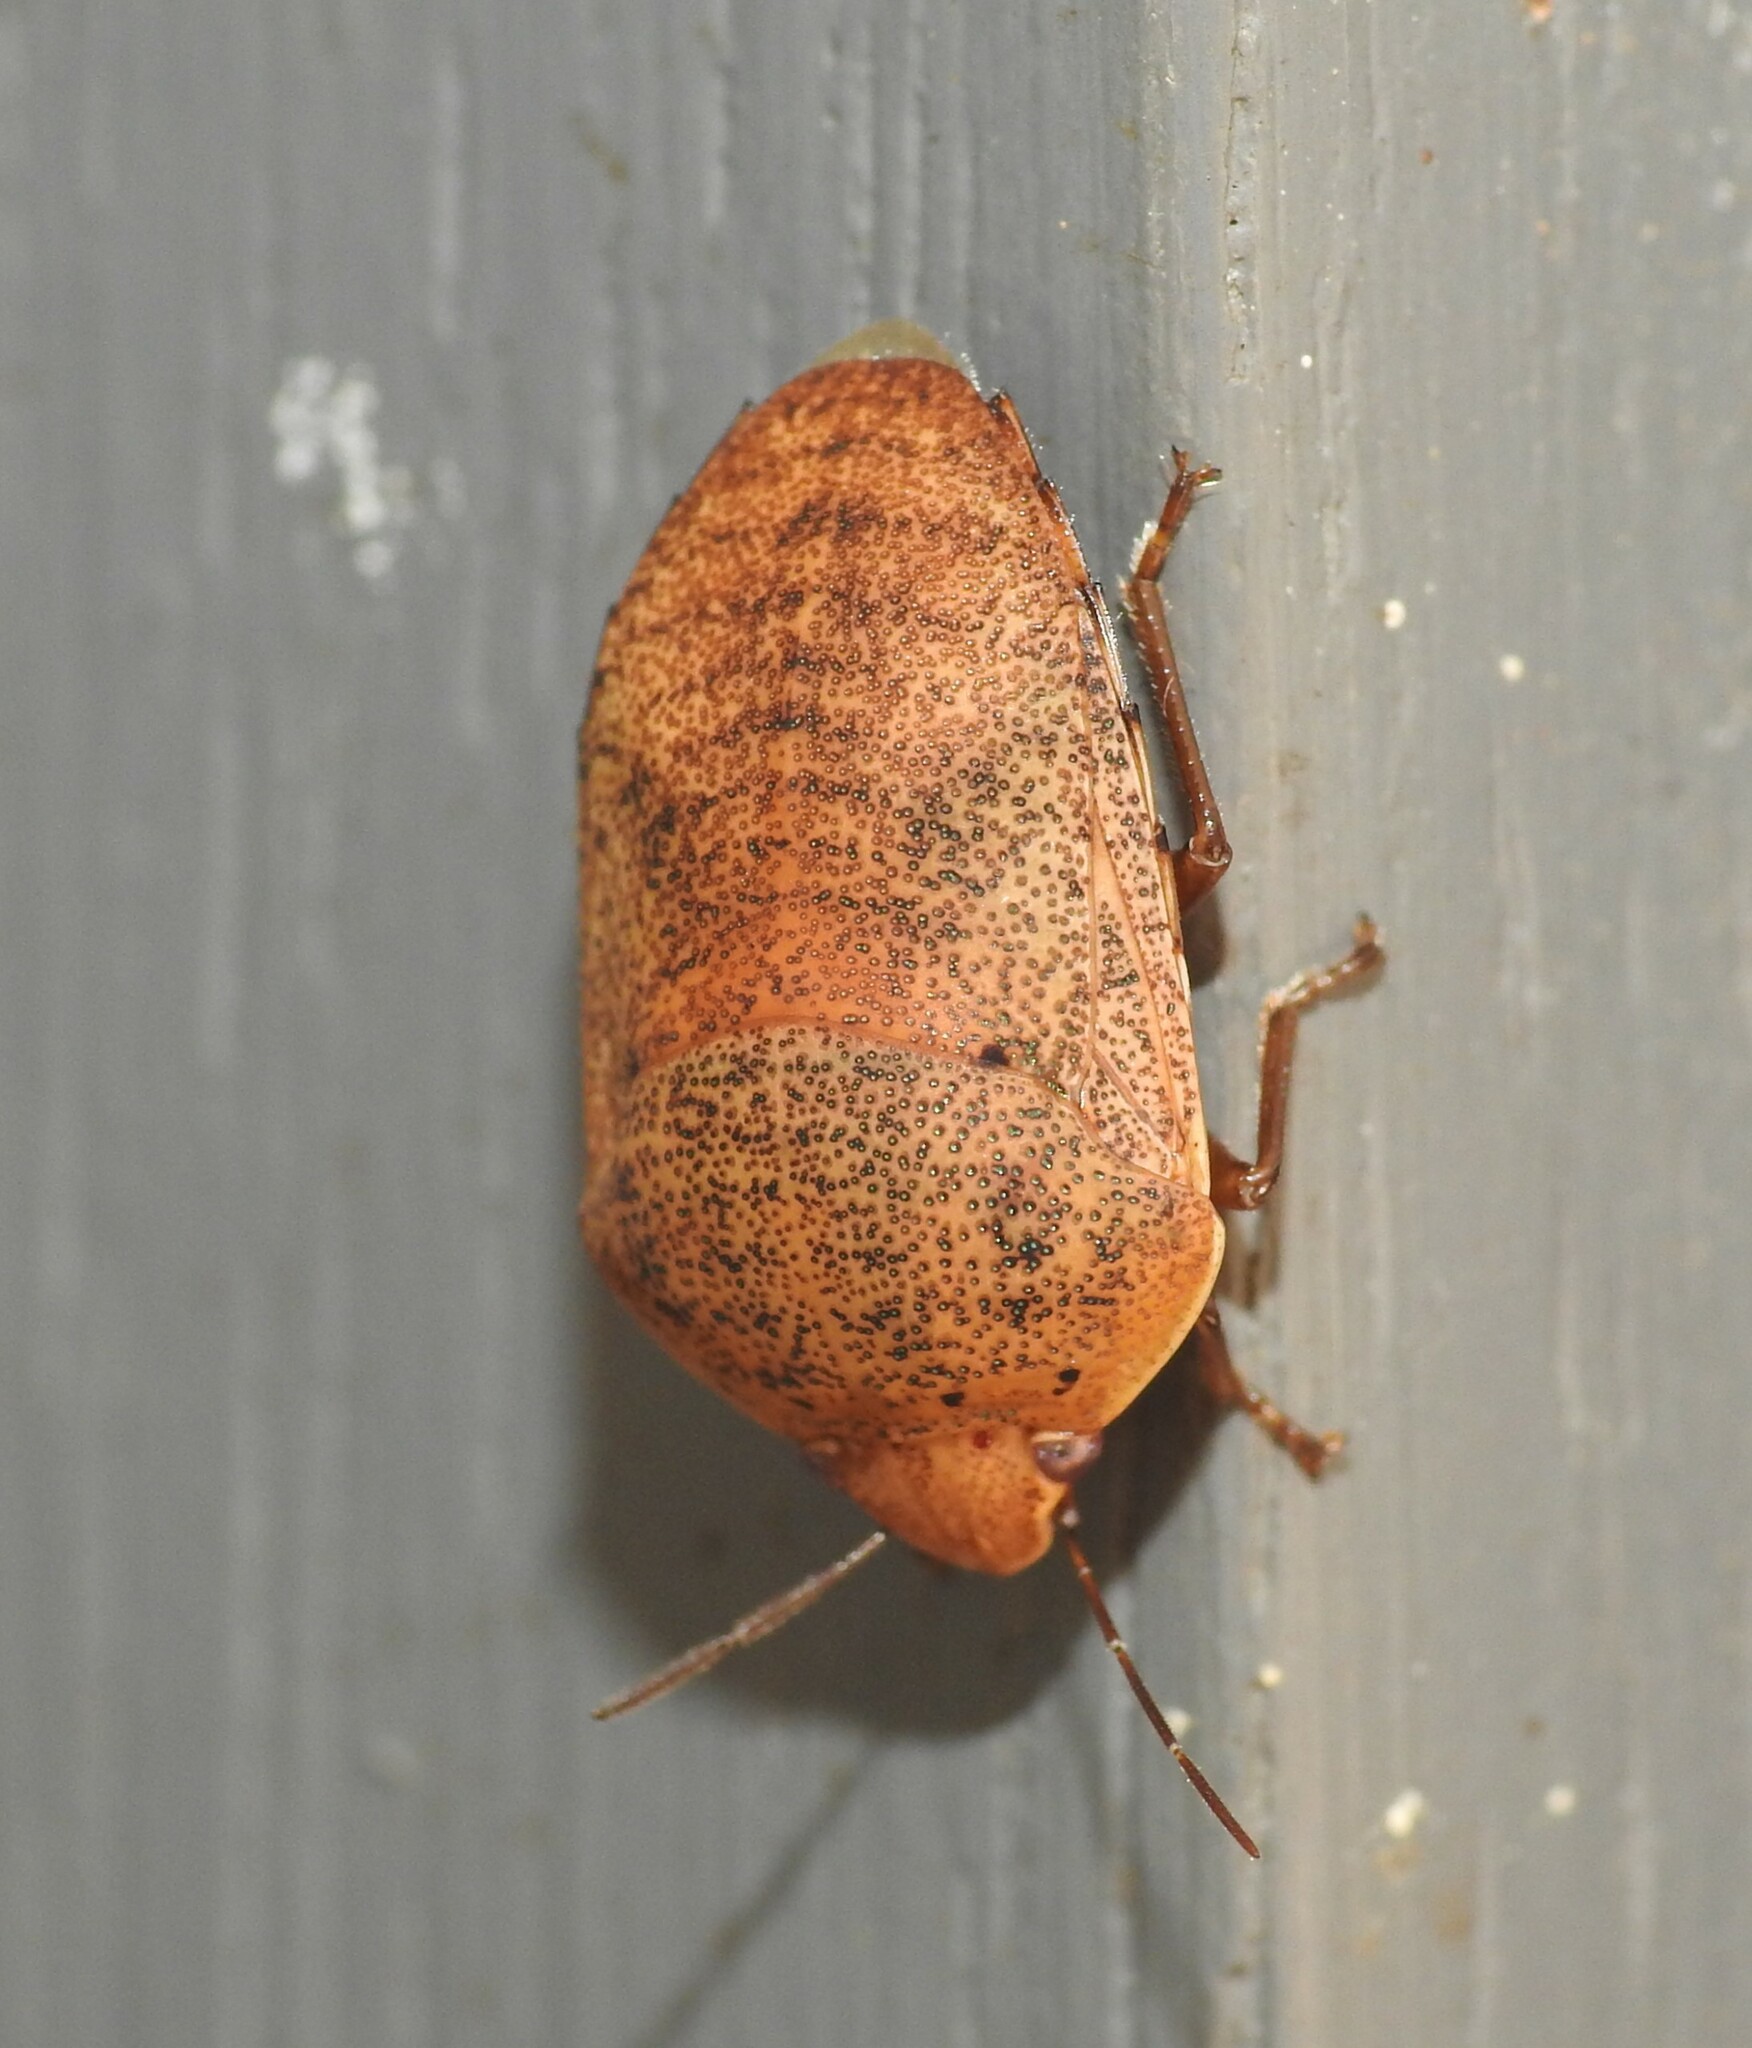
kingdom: Animalia
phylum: Arthropoda
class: Insecta
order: Hemiptera
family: Pentatomidae
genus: Coleotichus
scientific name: Coleotichus artensis
